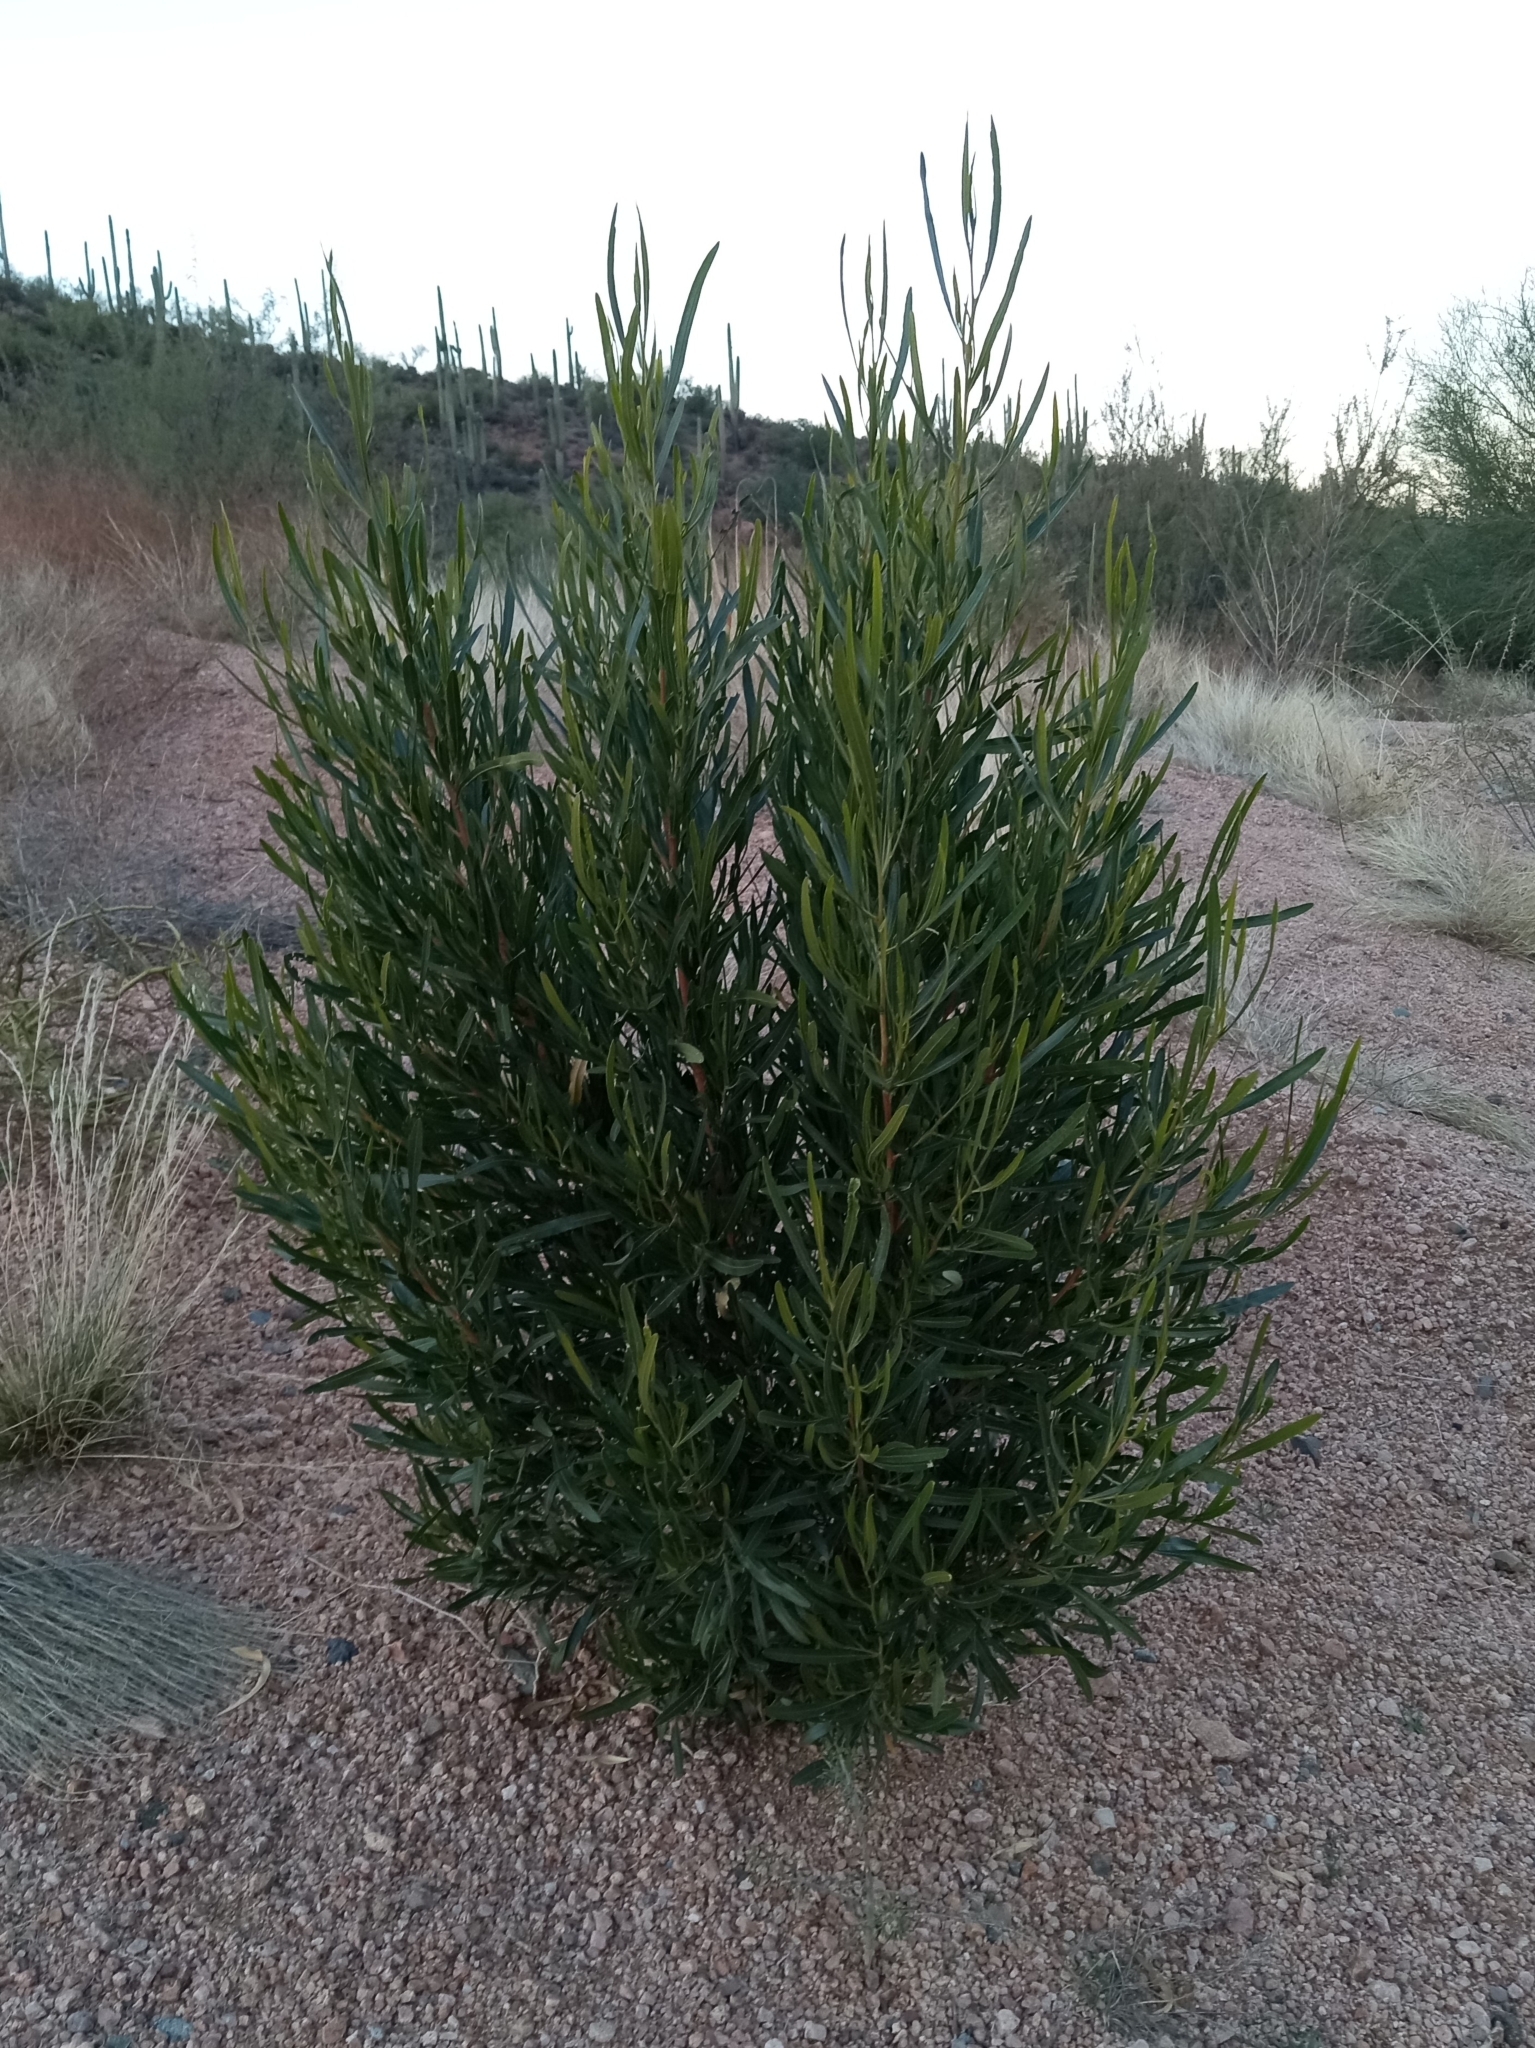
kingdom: Plantae
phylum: Tracheophyta
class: Magnoliopsida
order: Sapindales
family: Sapindaceae
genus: Dodonaea
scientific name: Dodonaea viscosa
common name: Hopbush
